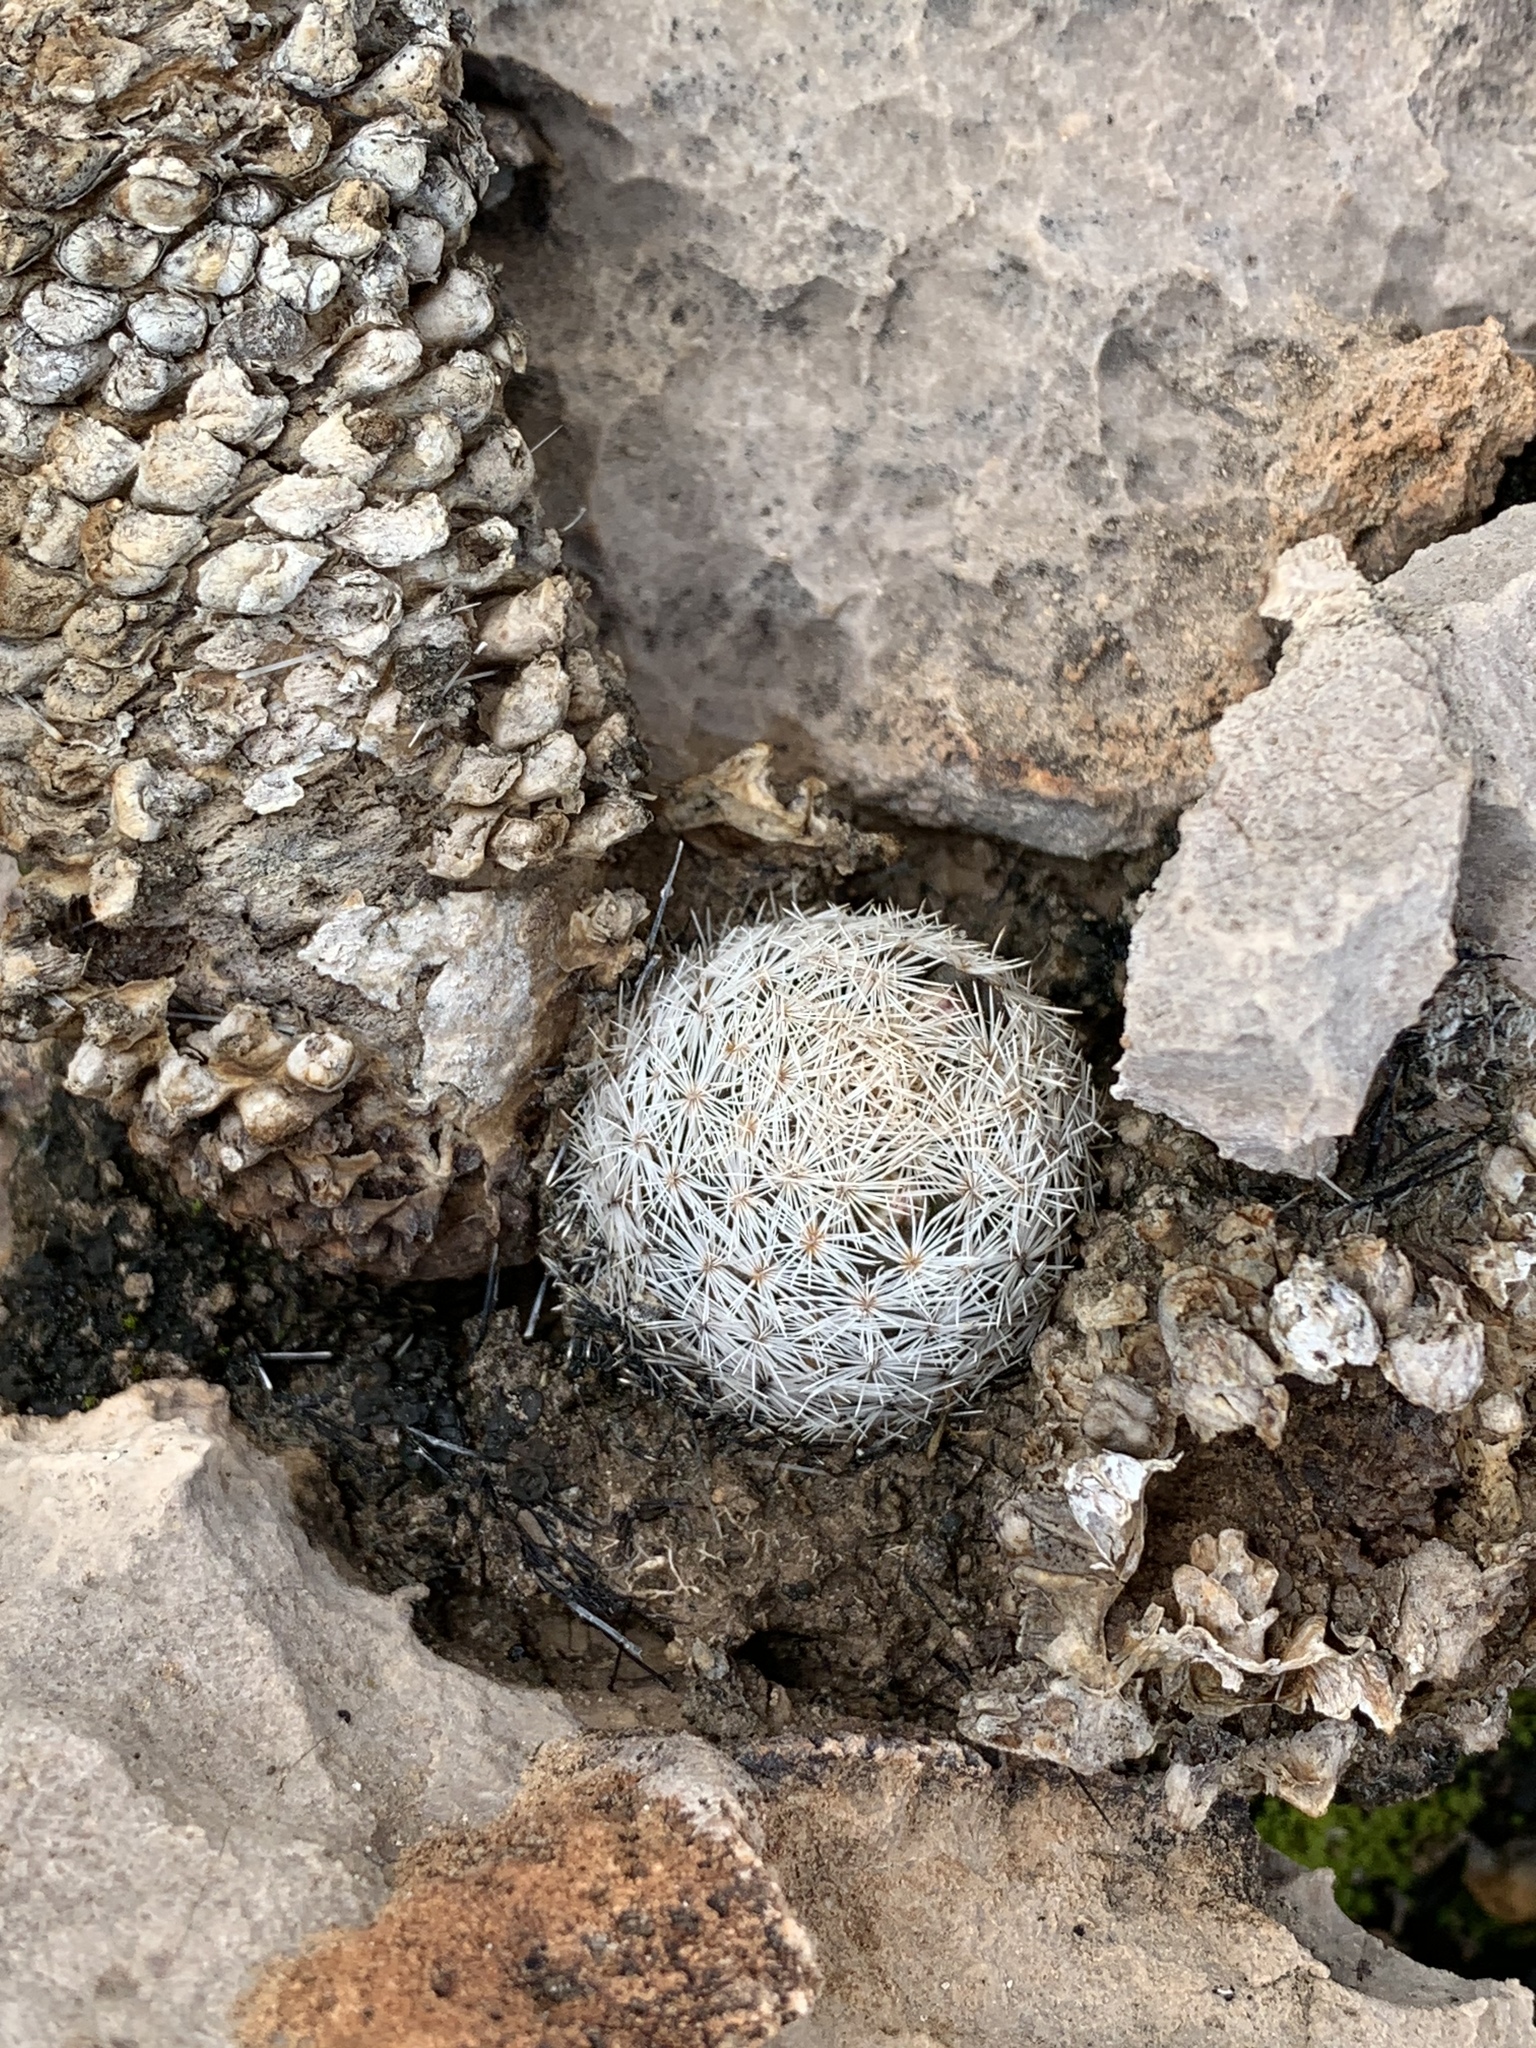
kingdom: Plantae
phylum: Tracheophyta
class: Magnoliopsida
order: Caryophyllales
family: Cactaceae
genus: Mammillaria
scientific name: Mammillaria lasiacantha
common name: Lace-spine nipple cactus
